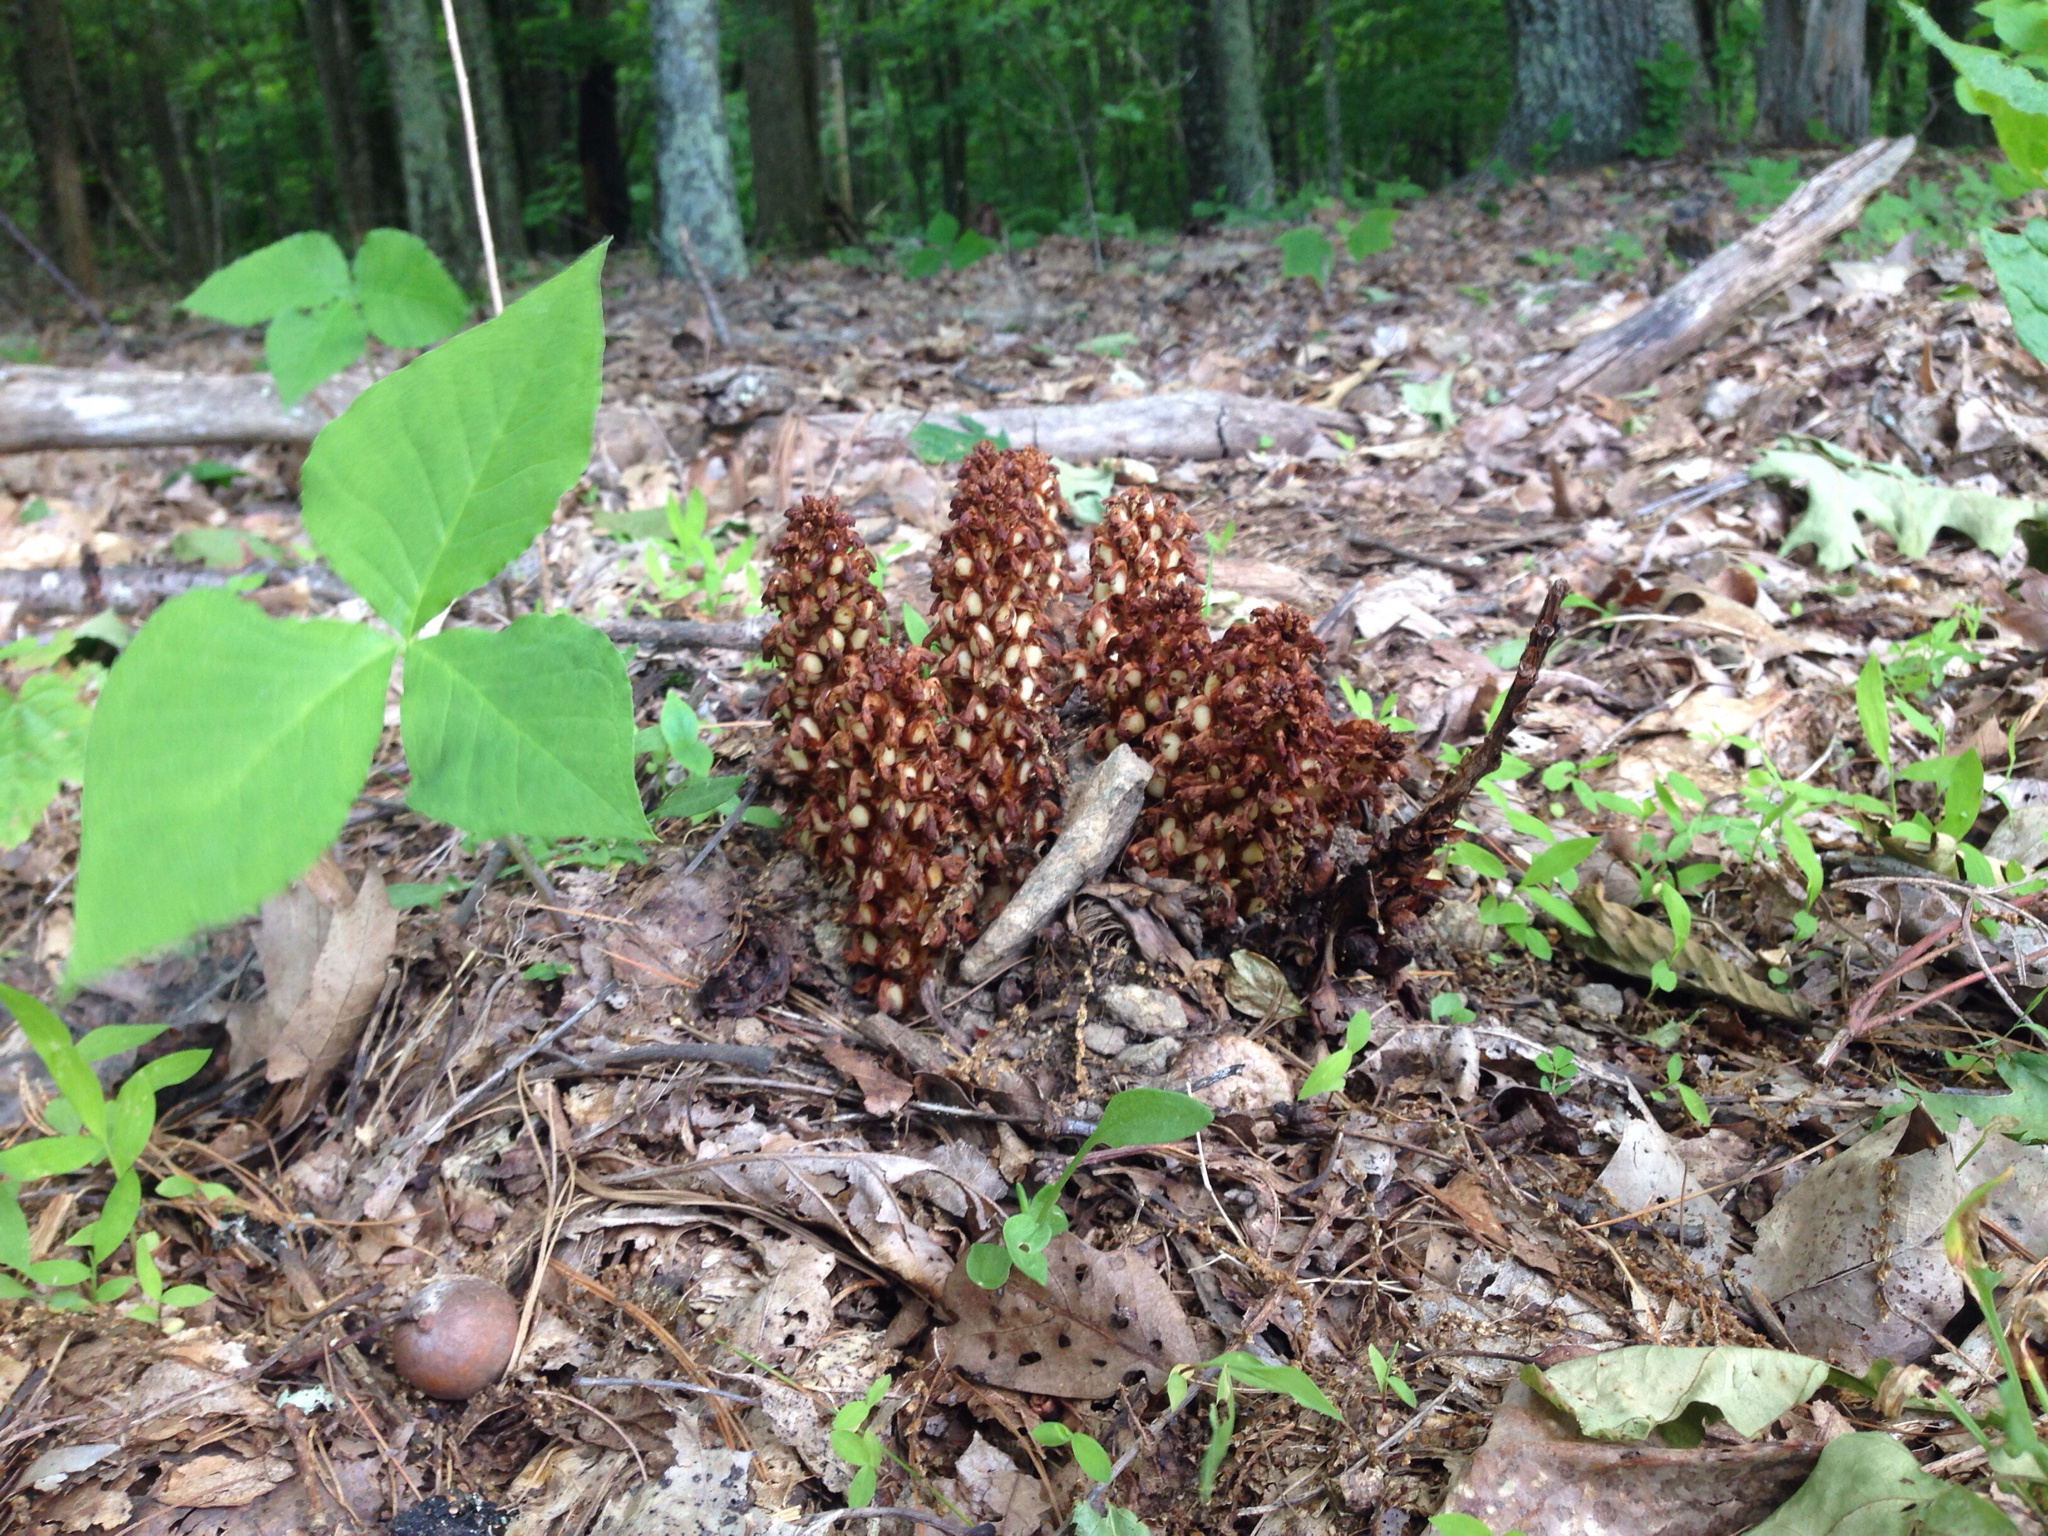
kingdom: Plantae
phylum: Tracheophyta
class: Magnoliopsida
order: Lamiales
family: Orobanchaceae
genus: Conopholis
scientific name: Conopholis americana
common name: American cancer-root
